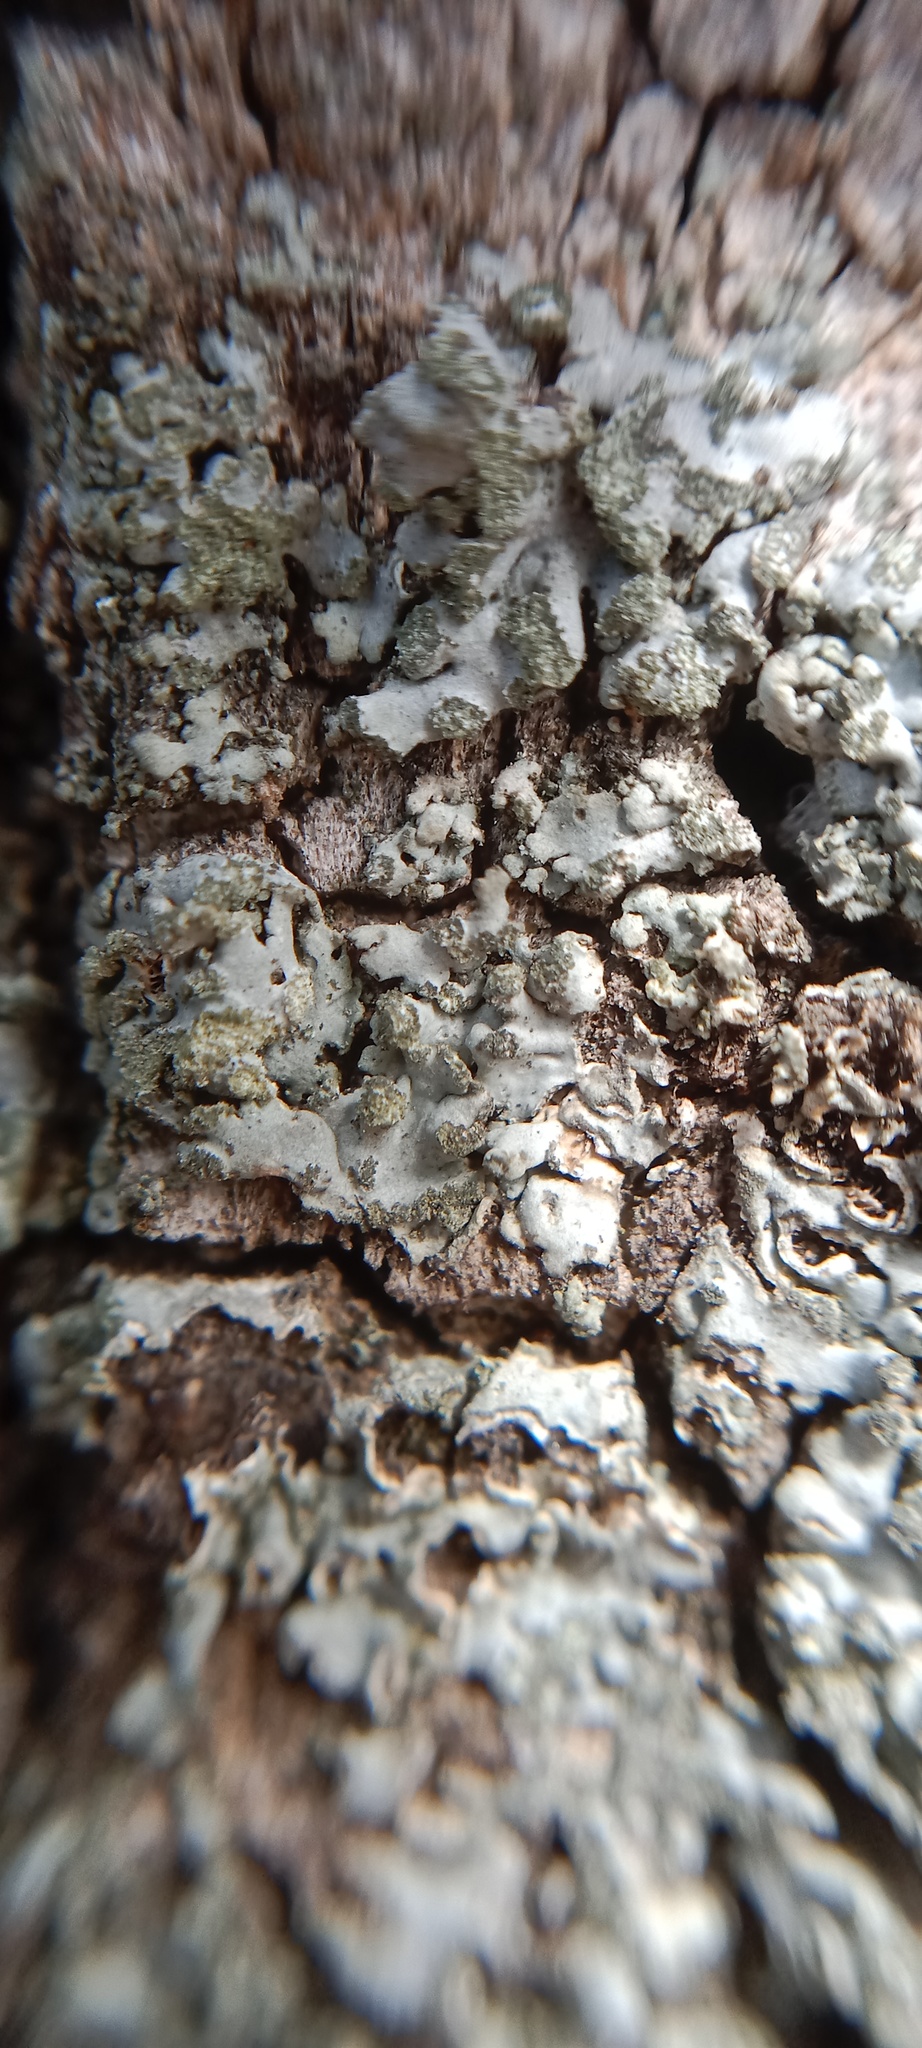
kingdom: Fungi
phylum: Ascomycota
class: Lecanoromycetes
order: Caliciales
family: Physciaceae
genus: Phaeophyscia
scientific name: Phaeophyscia orbicularis
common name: Mealy shadow lichen
